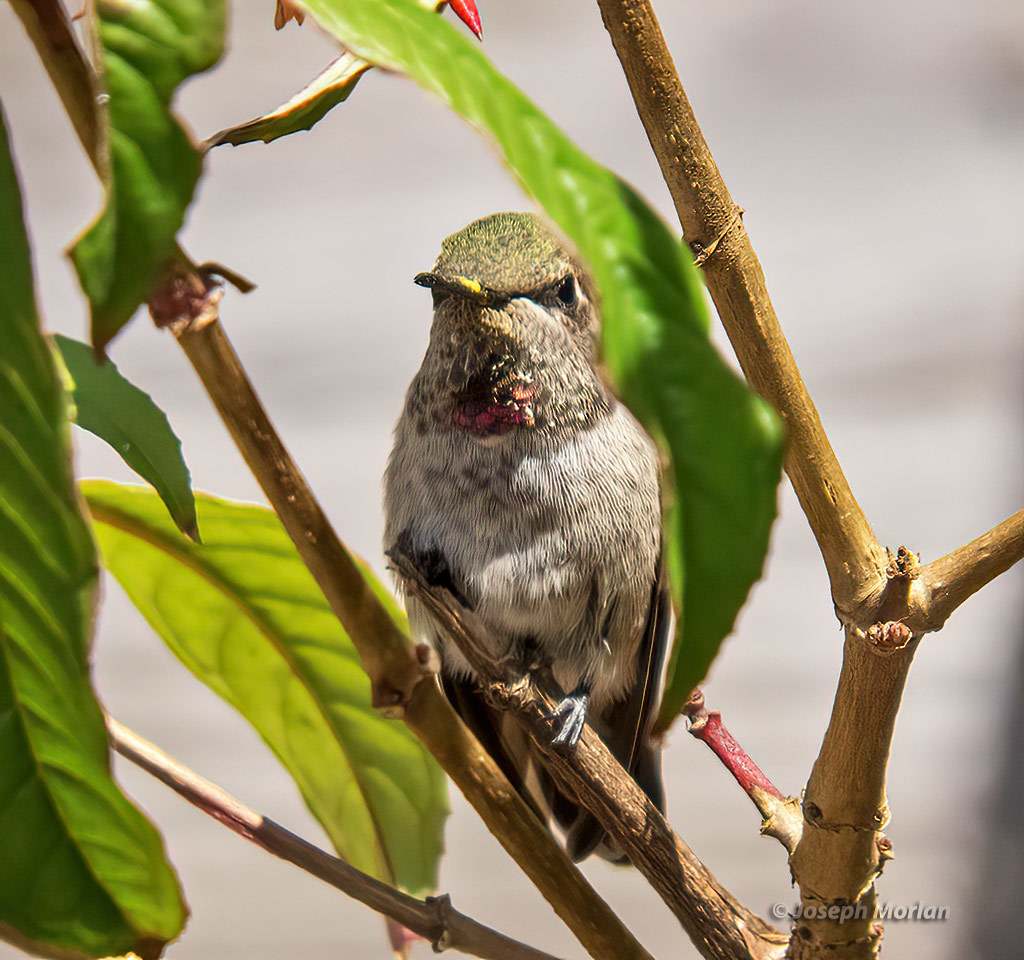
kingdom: Animalia
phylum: Chordata
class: Aves
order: Apodiformes
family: Trochilidae
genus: Calypte
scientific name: Calypte anna
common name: Anna's hummingbird
